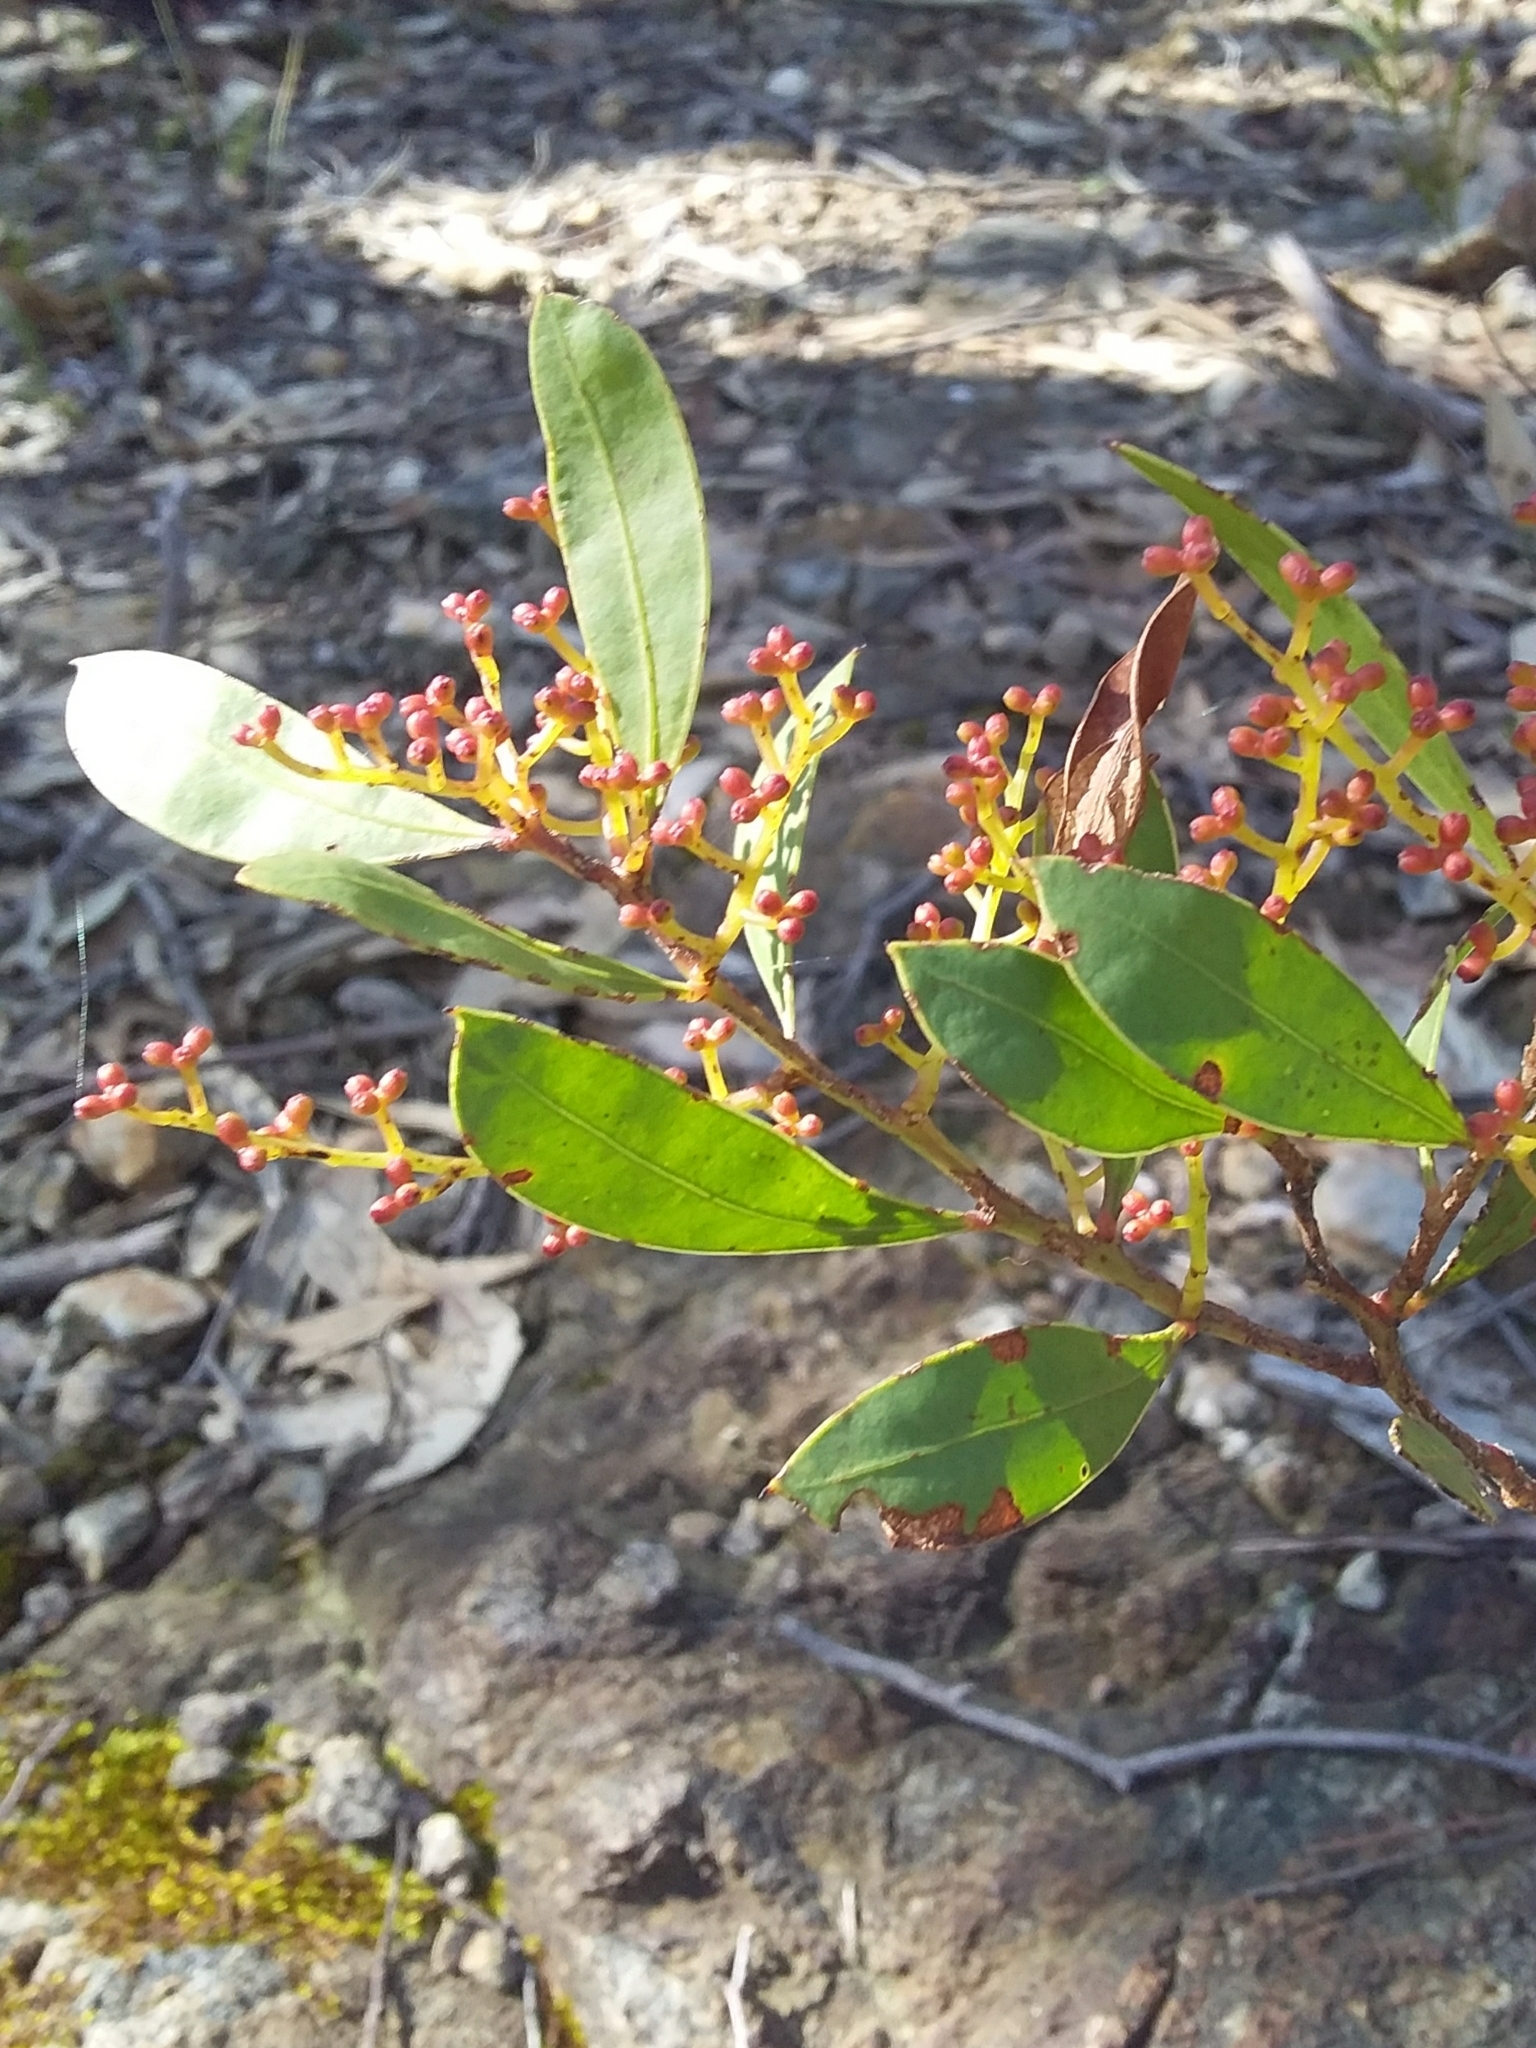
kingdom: Plantae
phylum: Tracheophyta
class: Magnoliopsida
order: Fabales
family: Fabaceae
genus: Acacia
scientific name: Acacia myrtifolia
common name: Myrtle wattle
